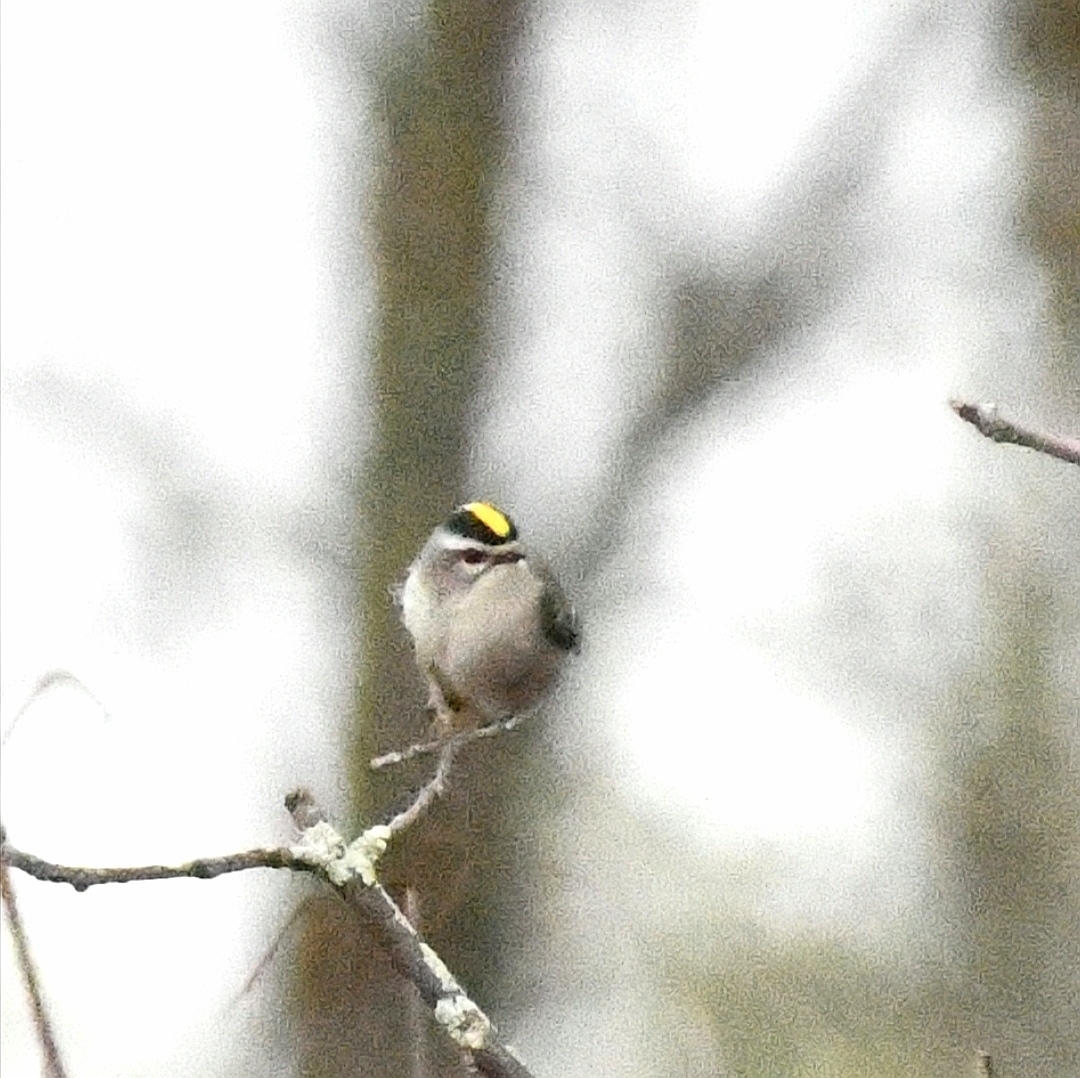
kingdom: Animalia
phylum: Chordata
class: Aves
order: Passeriformes
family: Regulidae
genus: Regulus
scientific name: Regulus satrapa
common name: Golden-crowned kinglet
